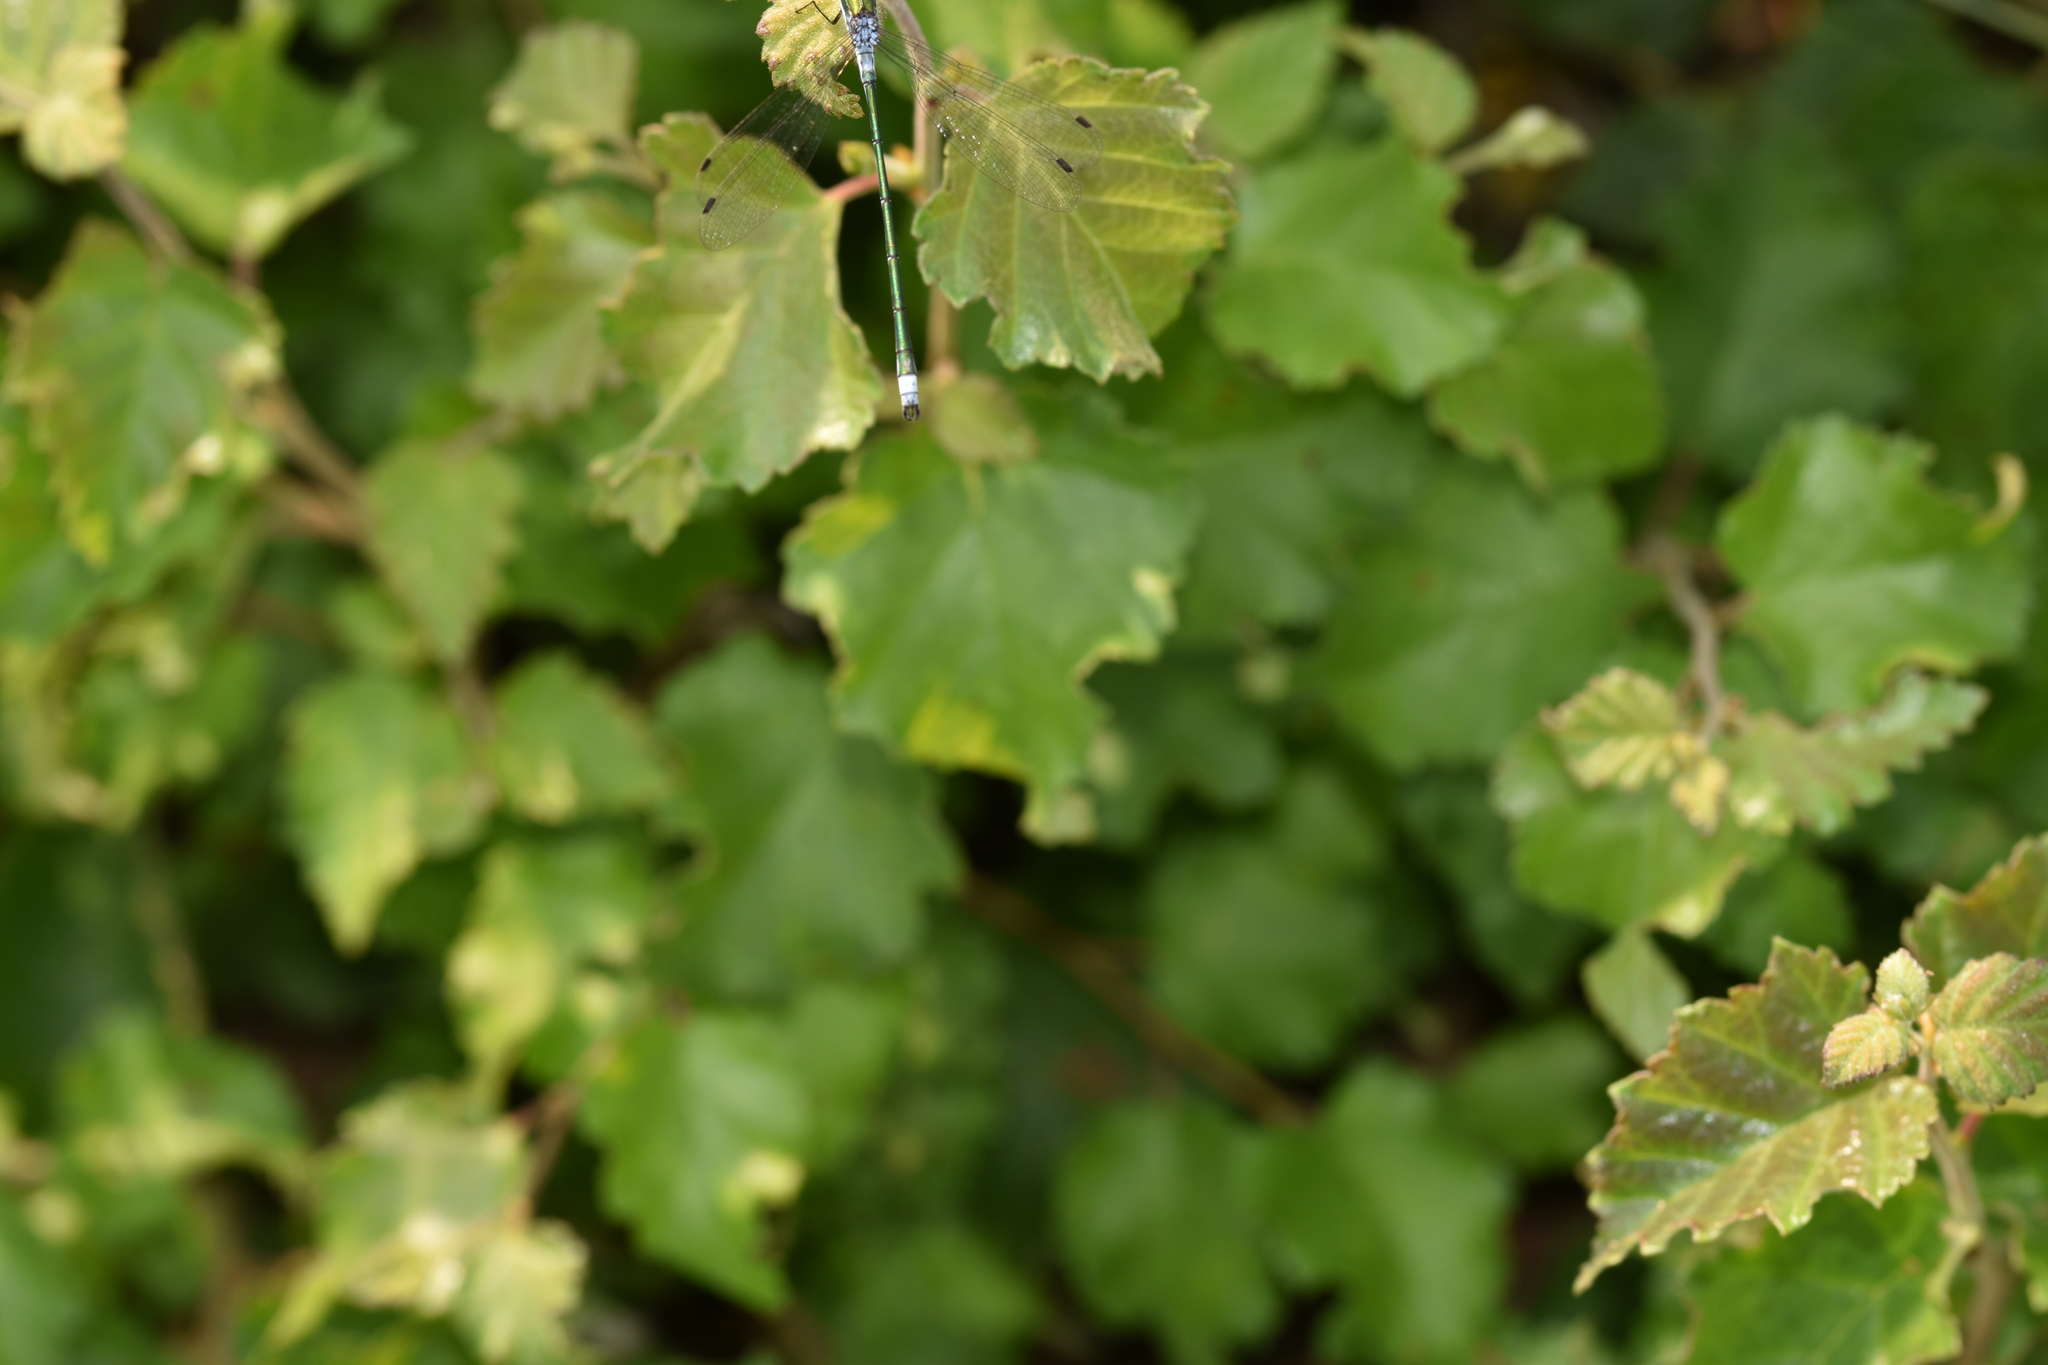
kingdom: Animalia
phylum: Arthropoda
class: Insecta
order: Odonata
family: Lestidae
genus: Lestes
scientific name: Lestes sponsa
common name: Common spreadwing
